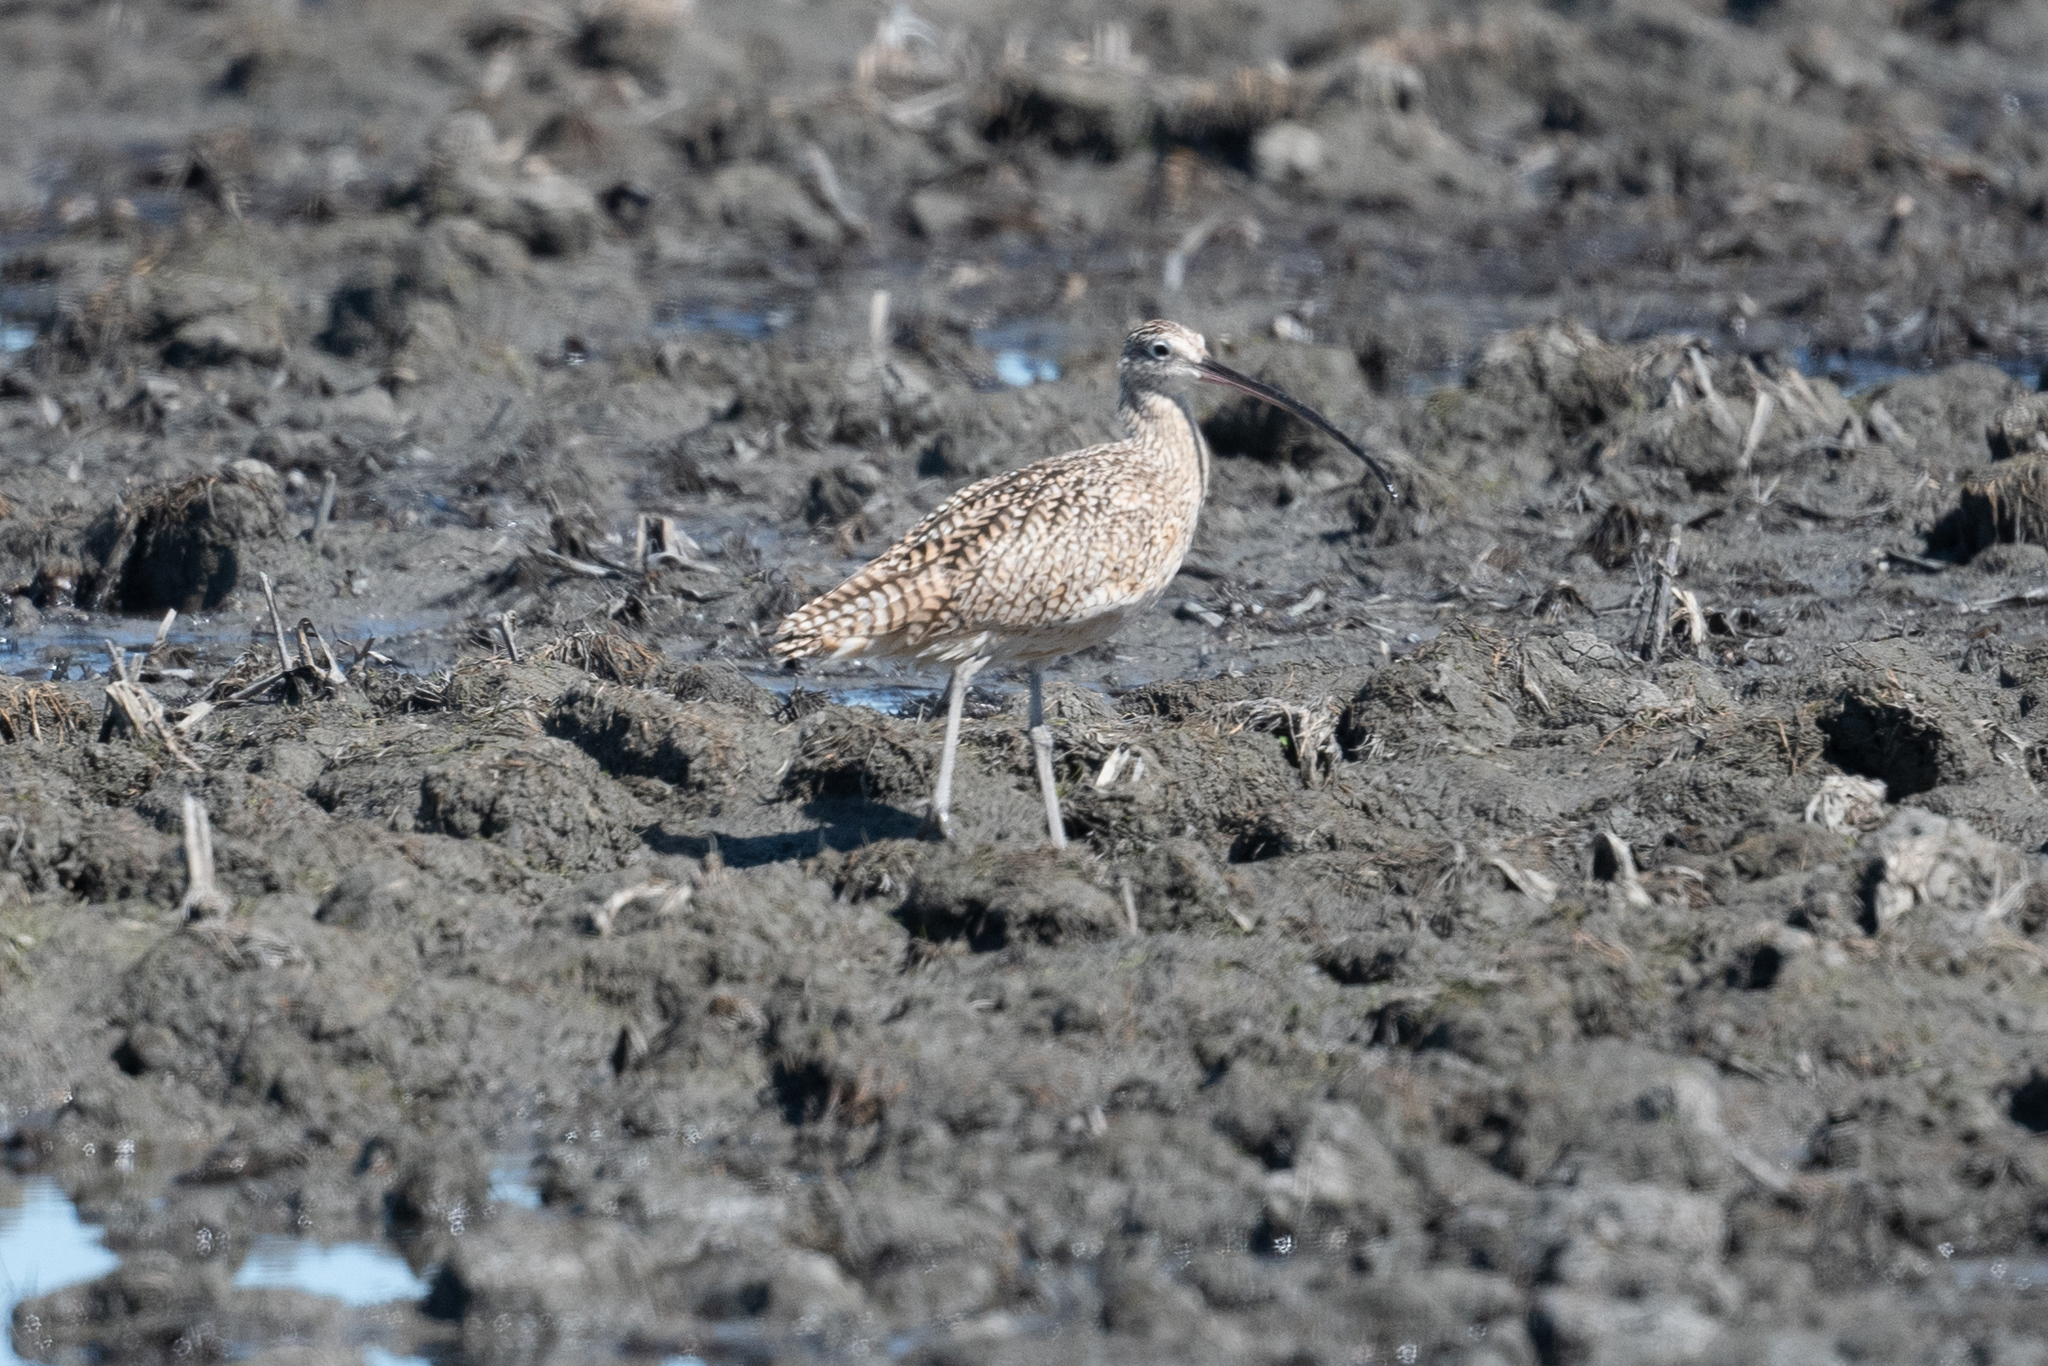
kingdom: Animalia
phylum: Chordata
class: Aves
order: Charadriiformes
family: Scolopacidae
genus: Numenius
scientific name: Numenius americanus
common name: Long-billed curlew
